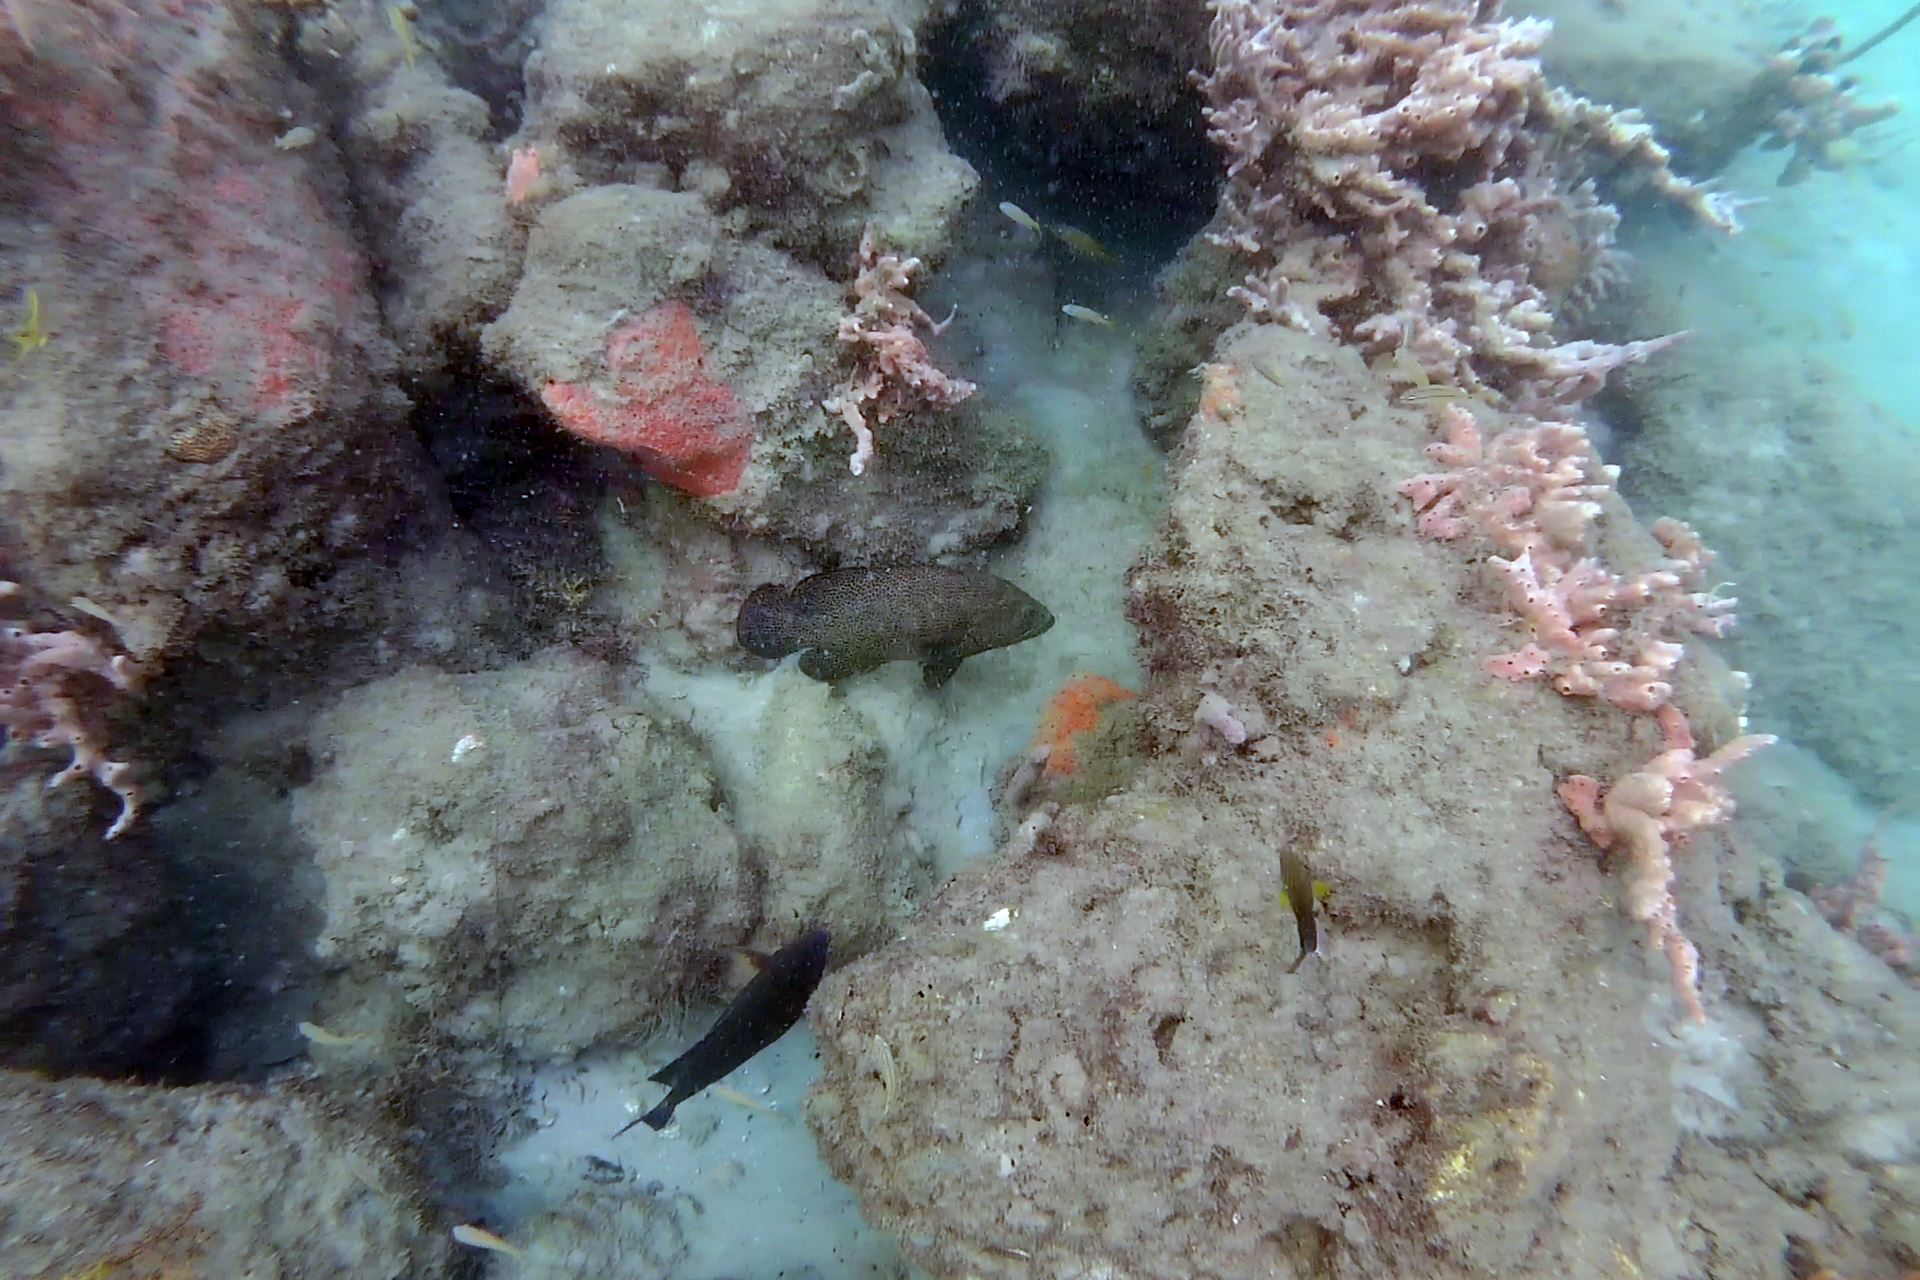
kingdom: Animalia
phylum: Chordata
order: Perciformes
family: Serranidae
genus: Cephalopholis
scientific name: Cephalopholis cruentata
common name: Graysby
